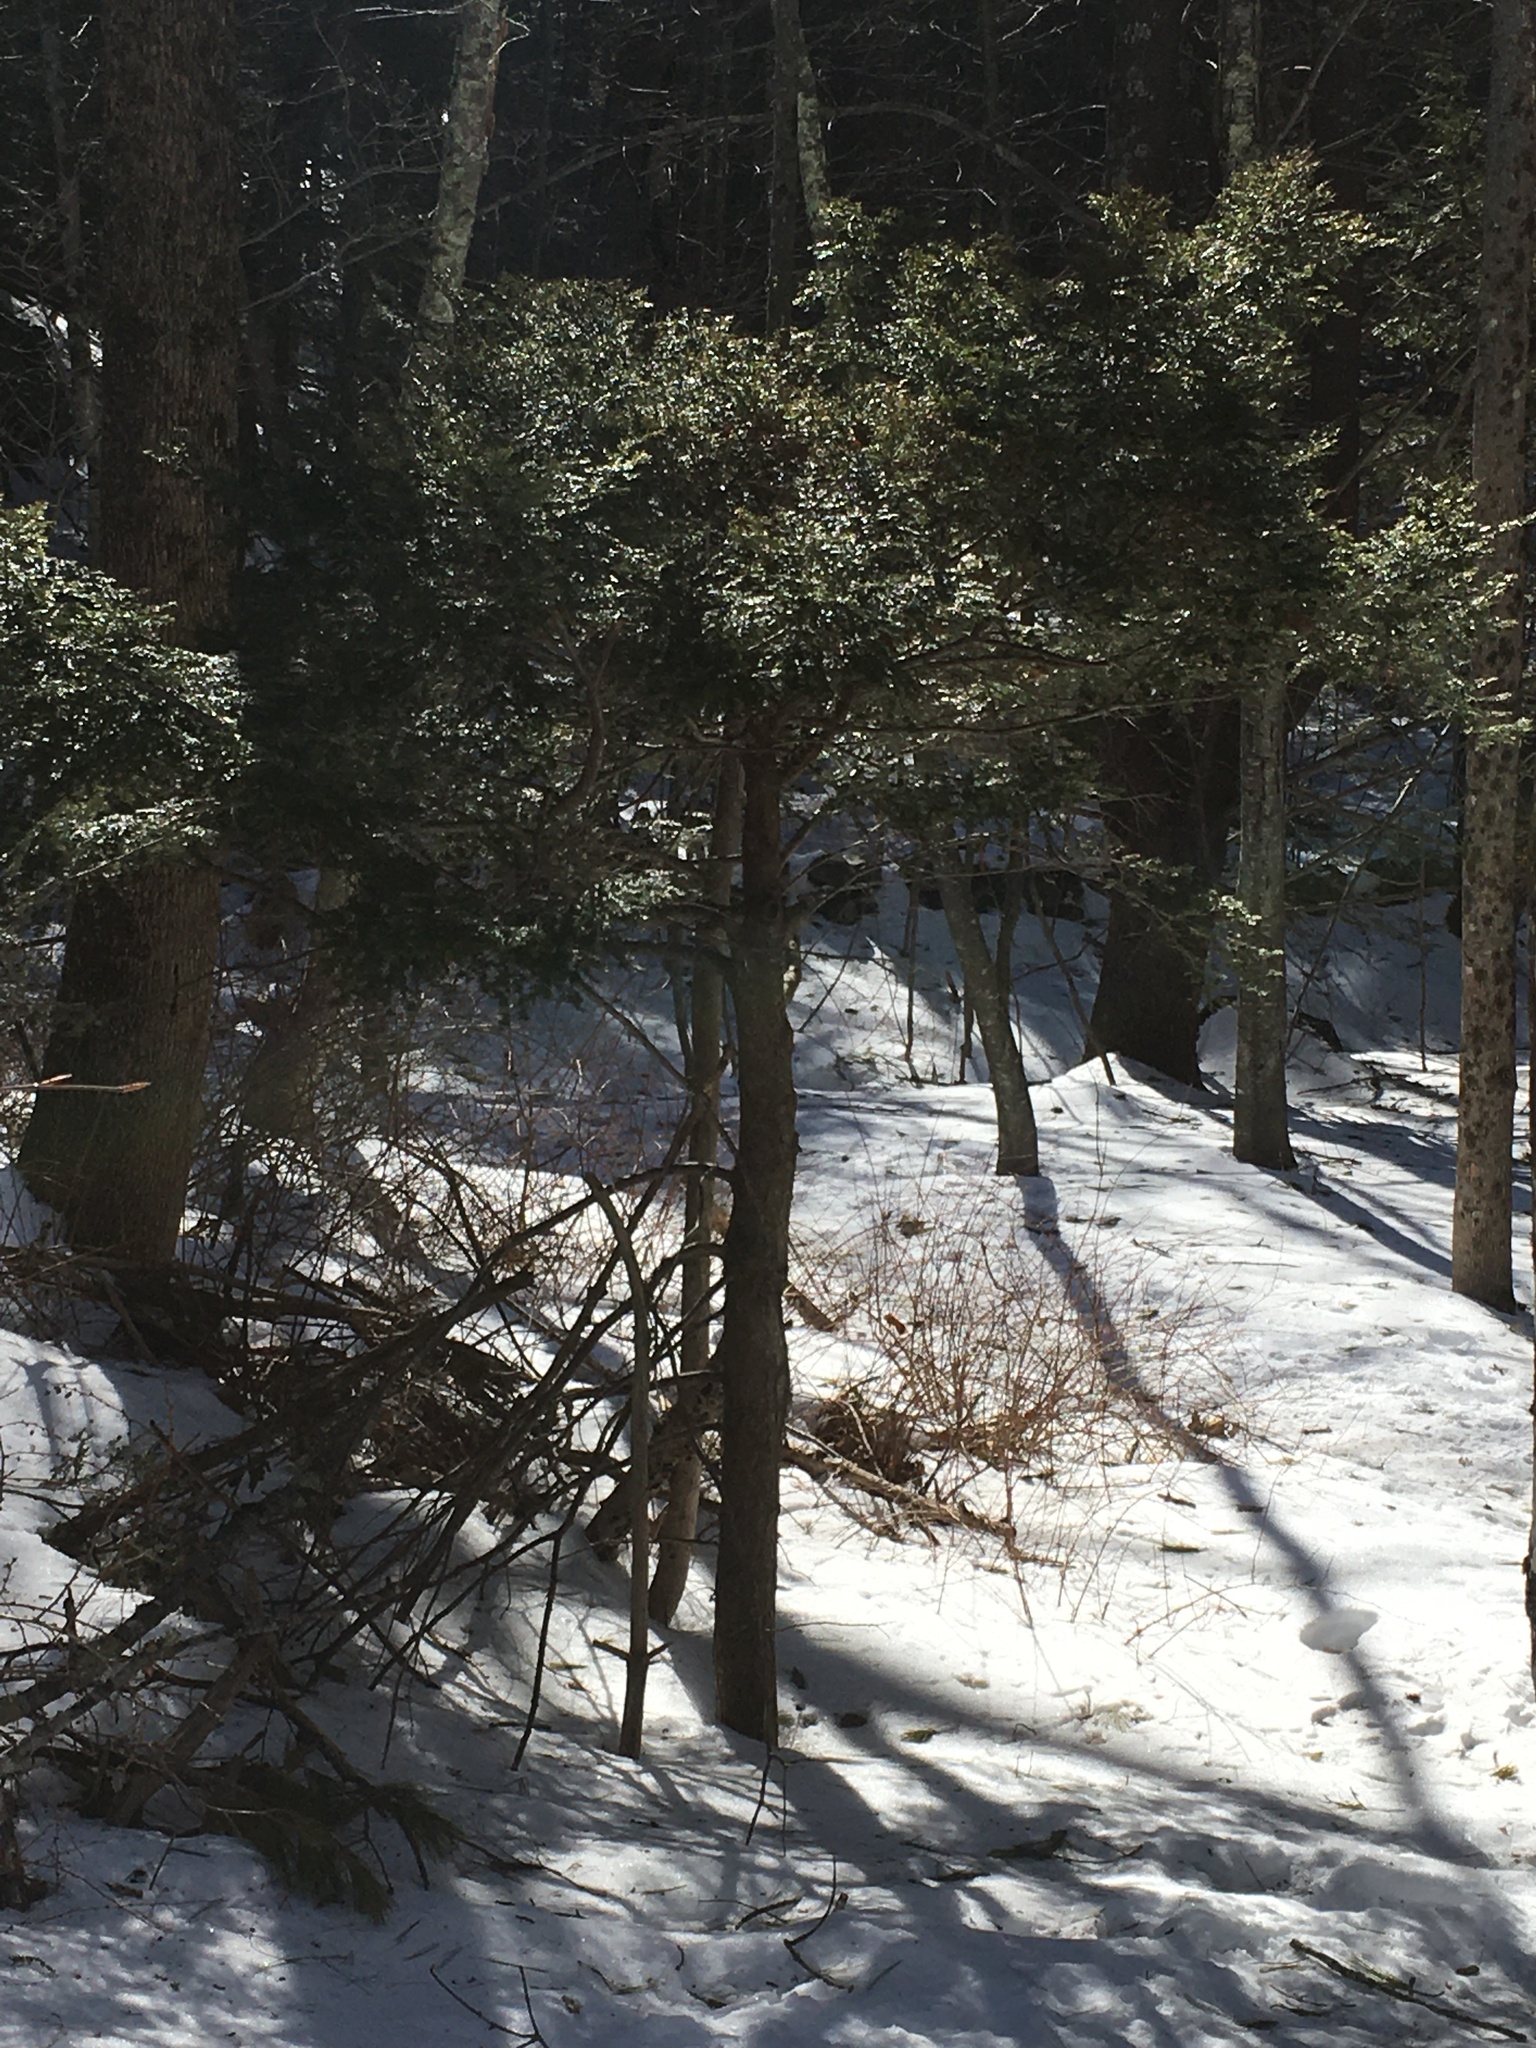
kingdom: Plantae
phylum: Tracheophyta
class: Pinopsida
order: Pinales
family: Pinaceae
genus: Tsuga
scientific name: Tsuga canadensis
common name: Eastern hemlock
